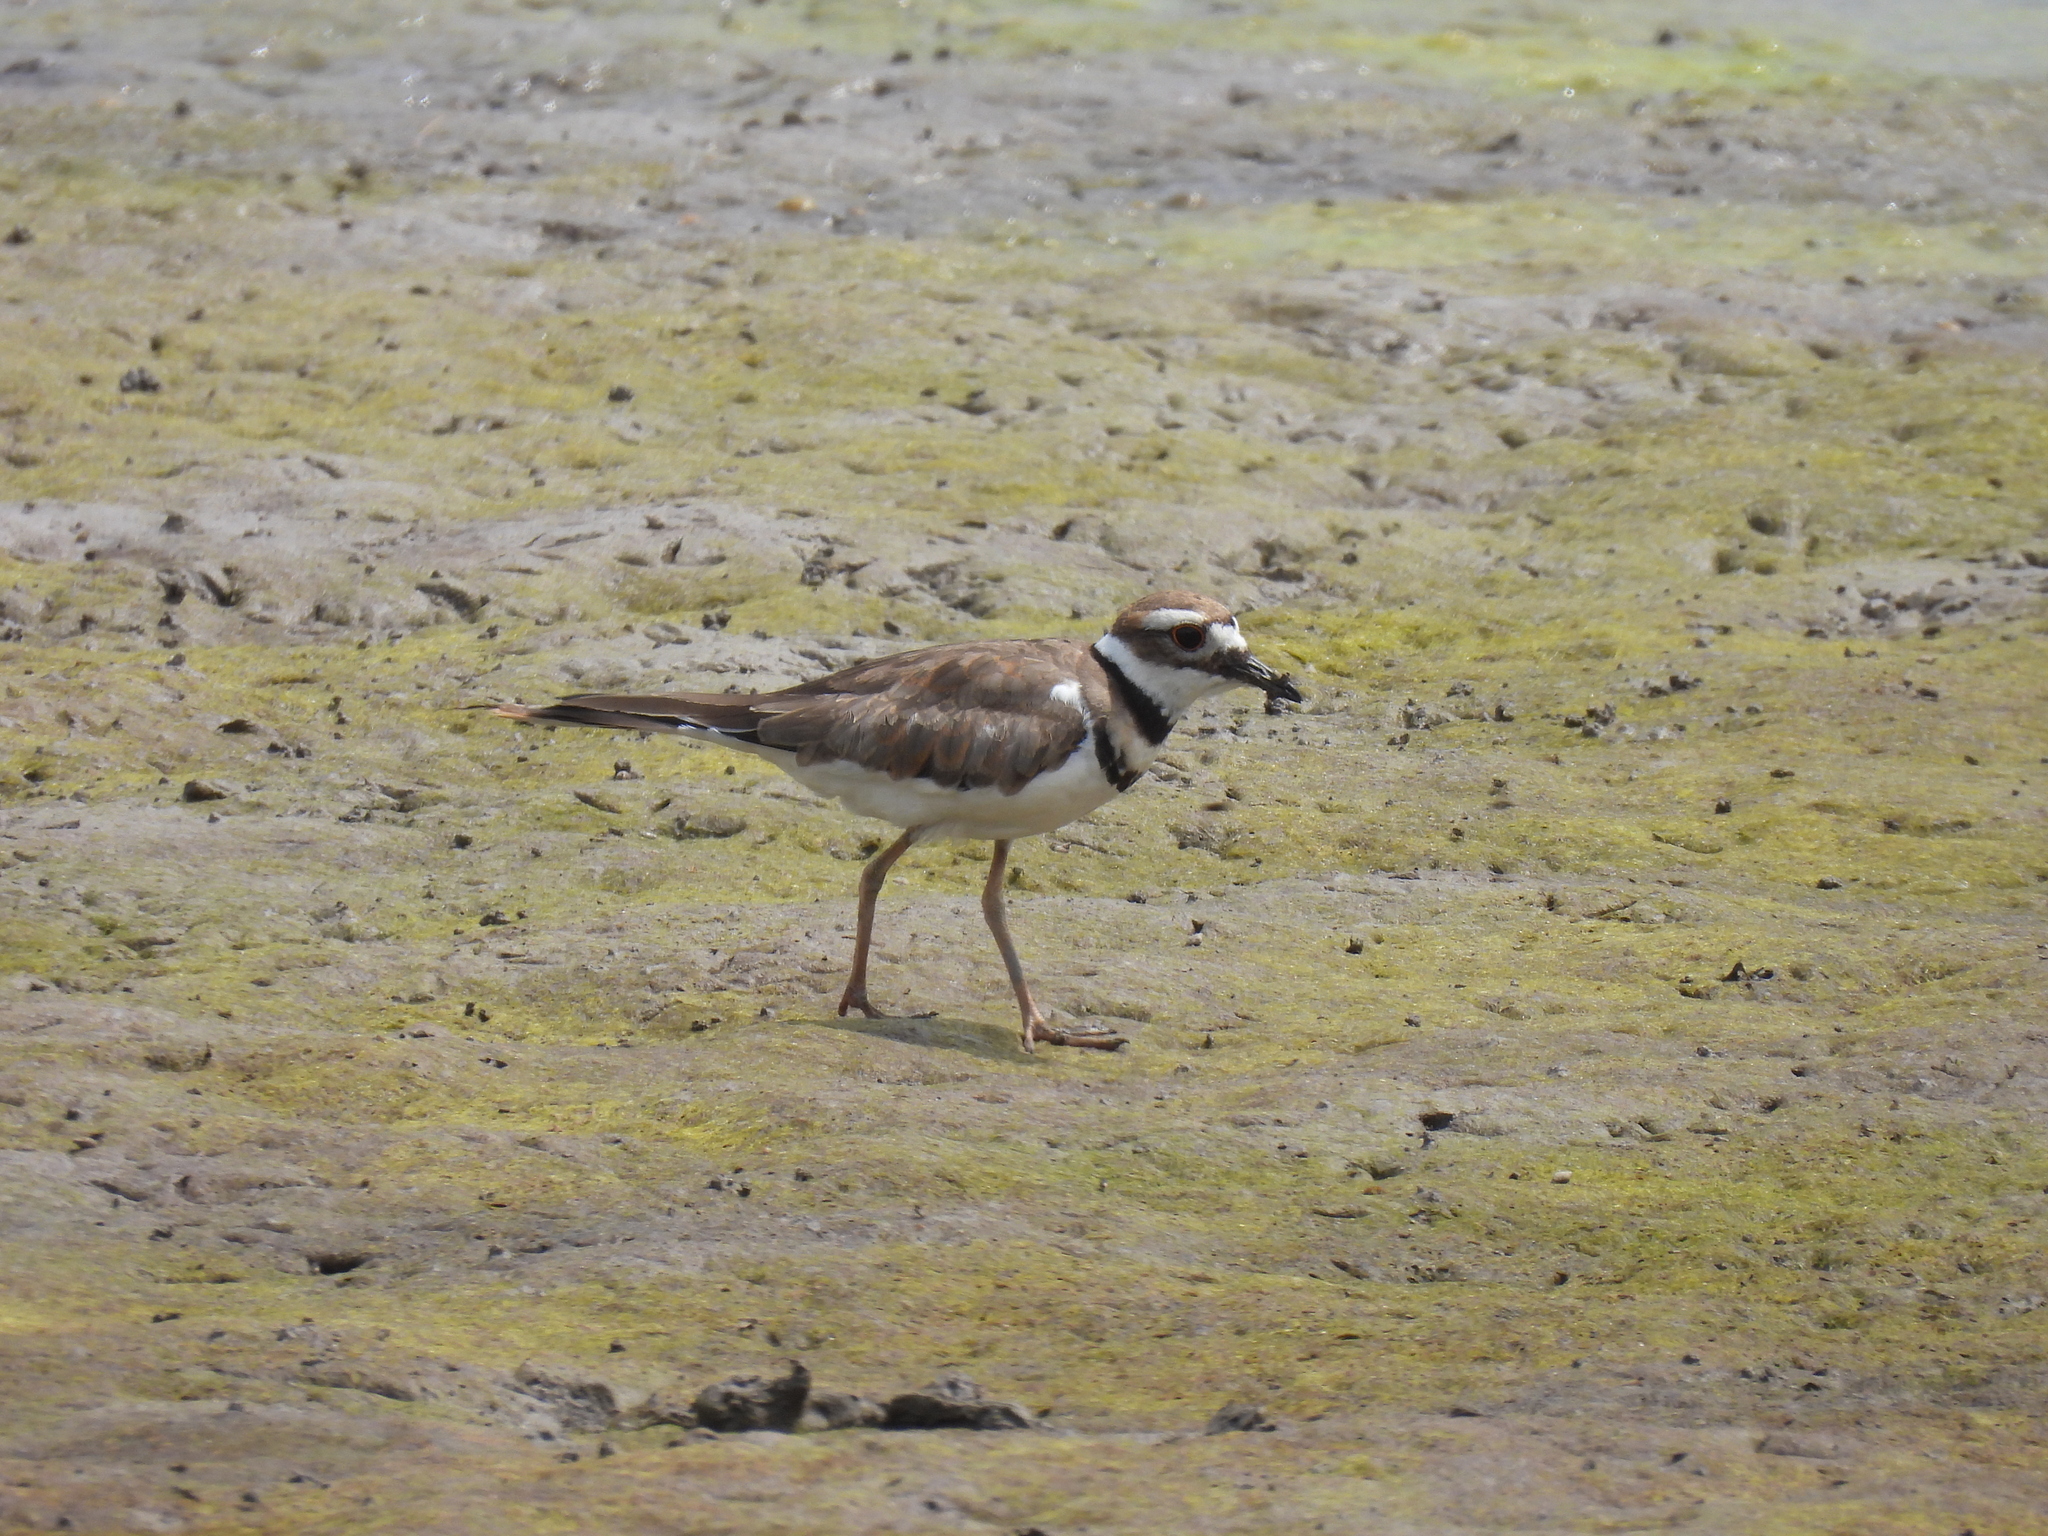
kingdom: Animalia
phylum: Chordata
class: Aves
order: Charadriiformes
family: Charadriidae
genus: Charadrius
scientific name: Charadrius vociferus
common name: Killdeer
